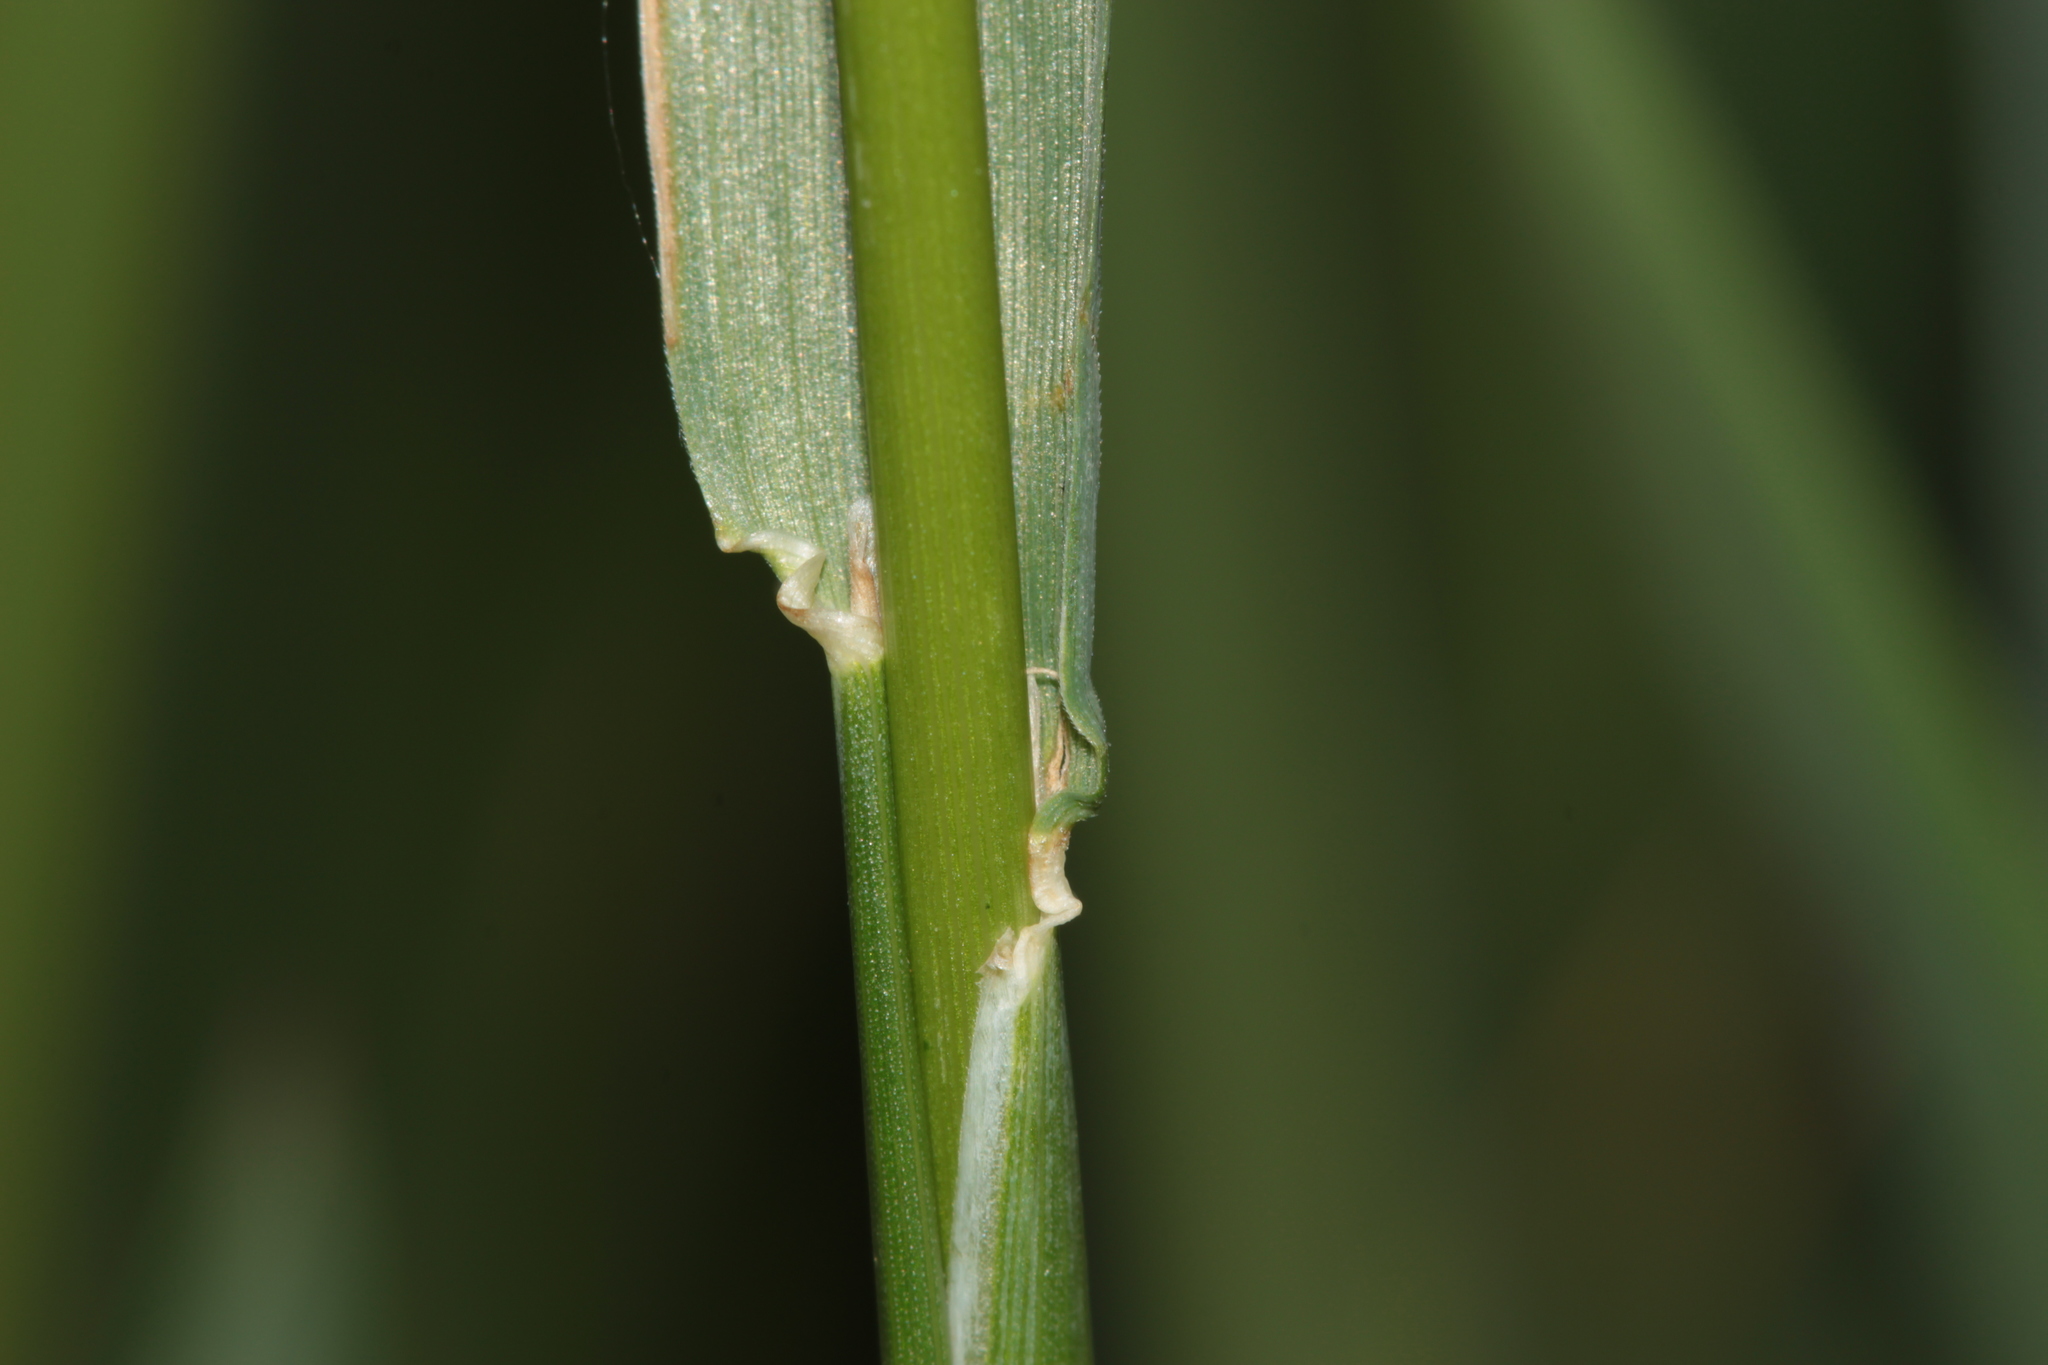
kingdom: Plantae
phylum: Tracheophyta
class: Liliopsida
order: Poales
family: Poaceae
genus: Alopecurus
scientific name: Alopecurus pratensis
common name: Meadow foxtail
